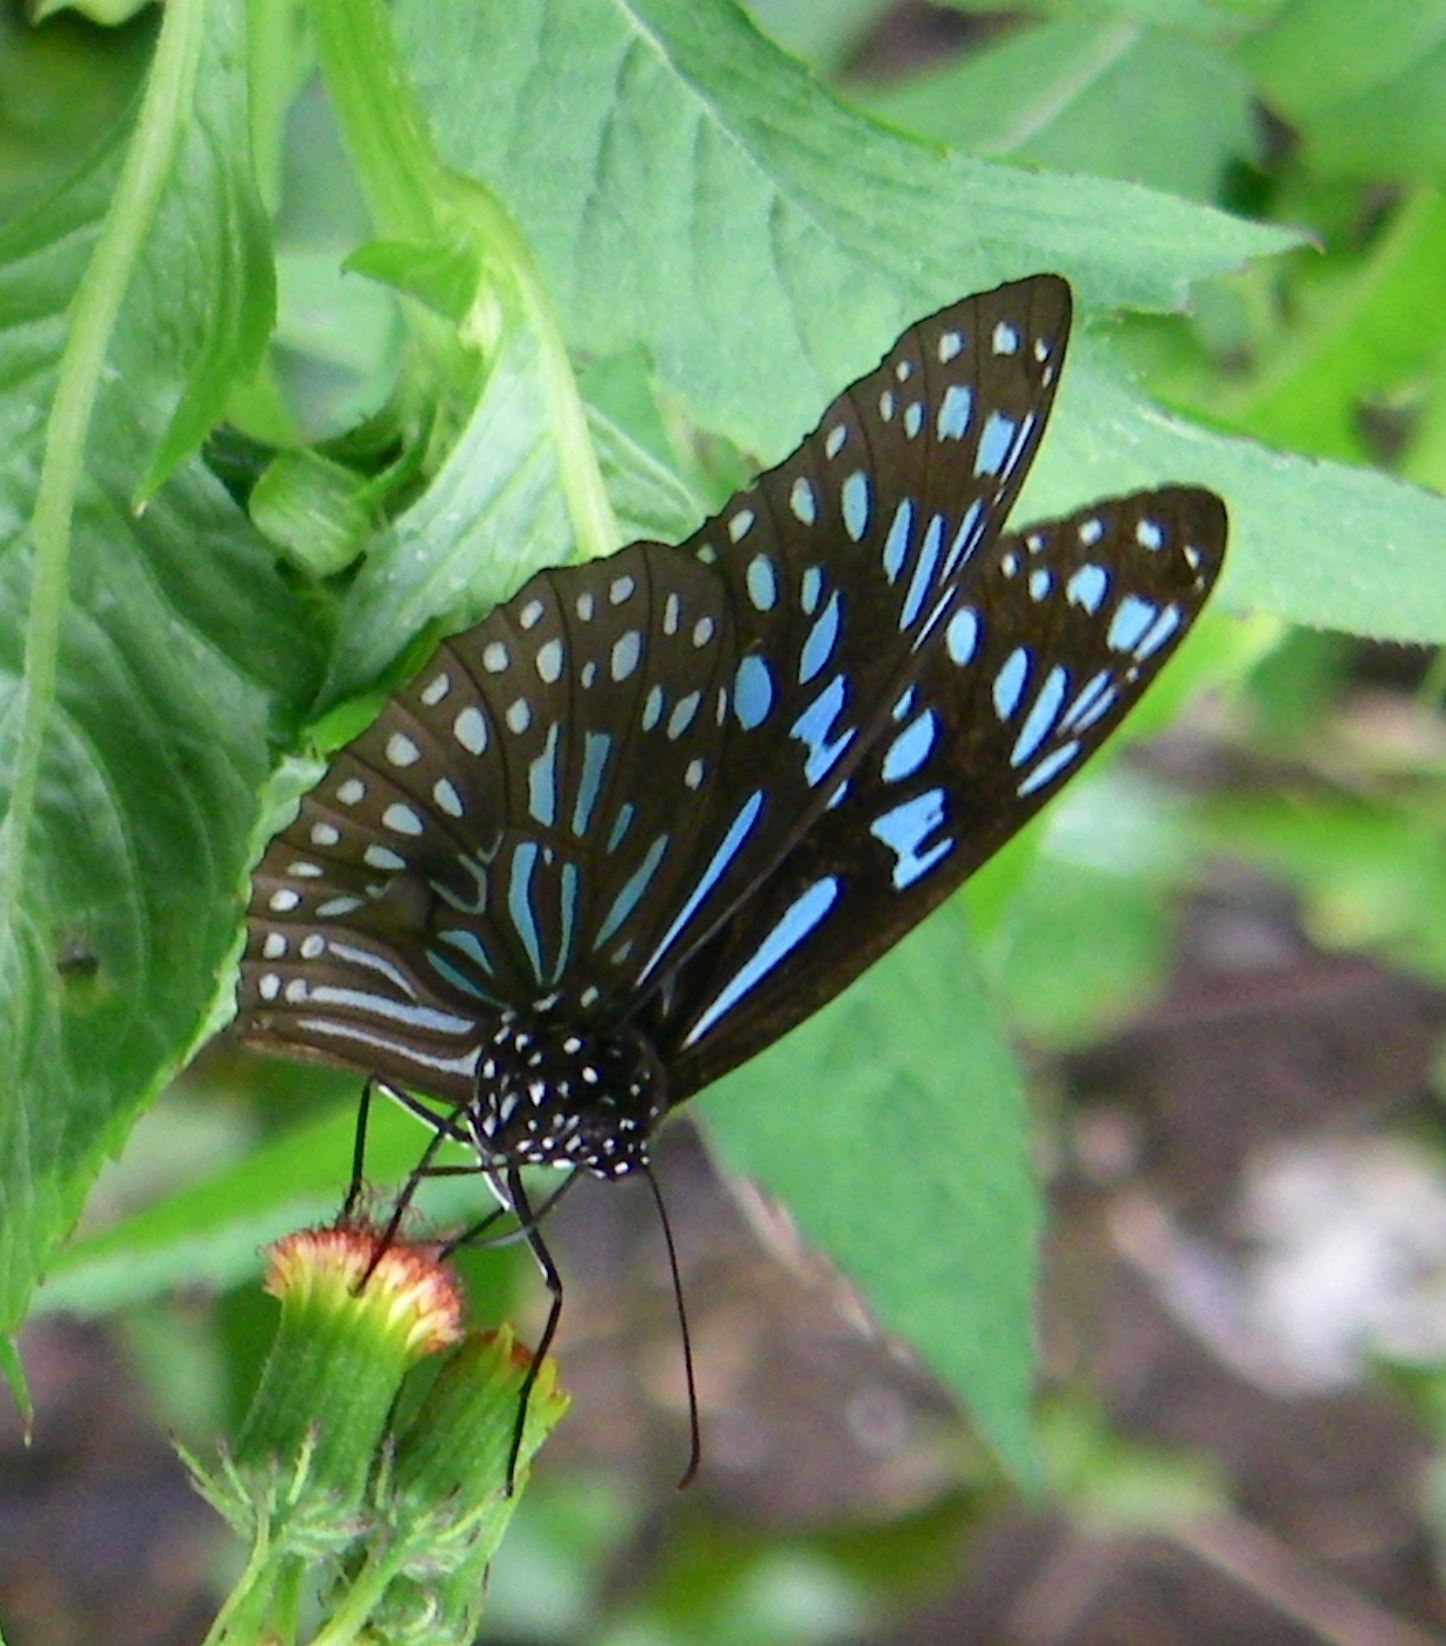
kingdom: Animalia
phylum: Arthropoda
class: Insecta
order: Lepidoptera
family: Nymphalidae
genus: Tirumala
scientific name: Tirumala hamata
